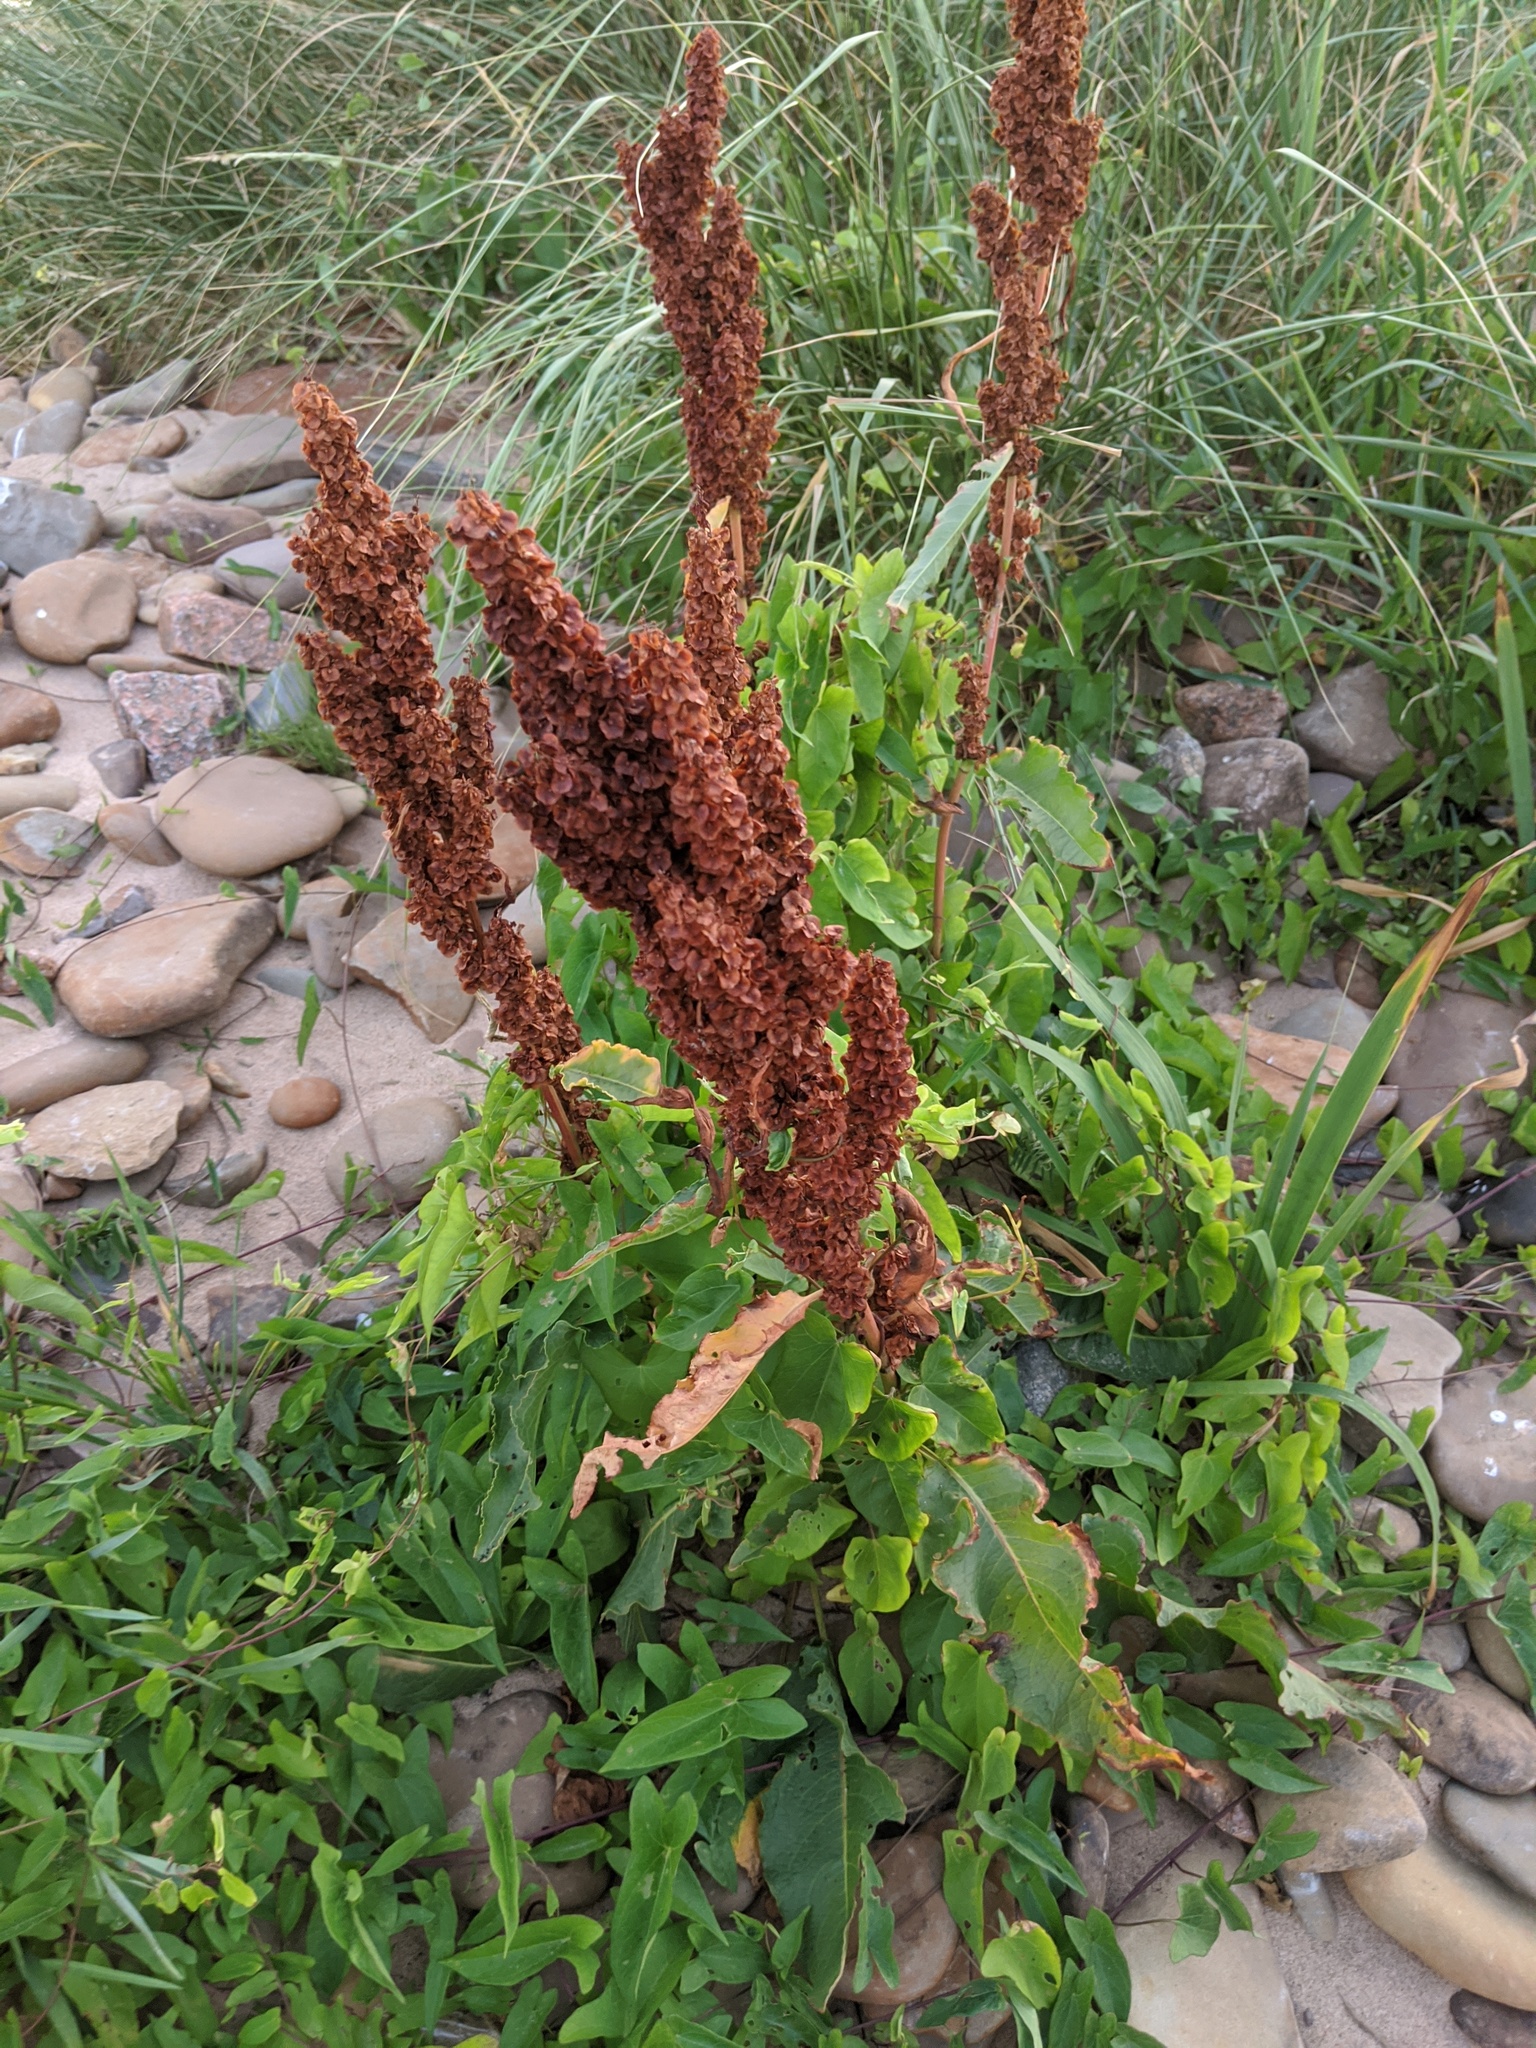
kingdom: Plantae
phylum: Tracheophyta
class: Magnoliopsida
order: Caryophyllales
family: Polygonaceae
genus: Rumex
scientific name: Rumex crispus
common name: Curled dock
